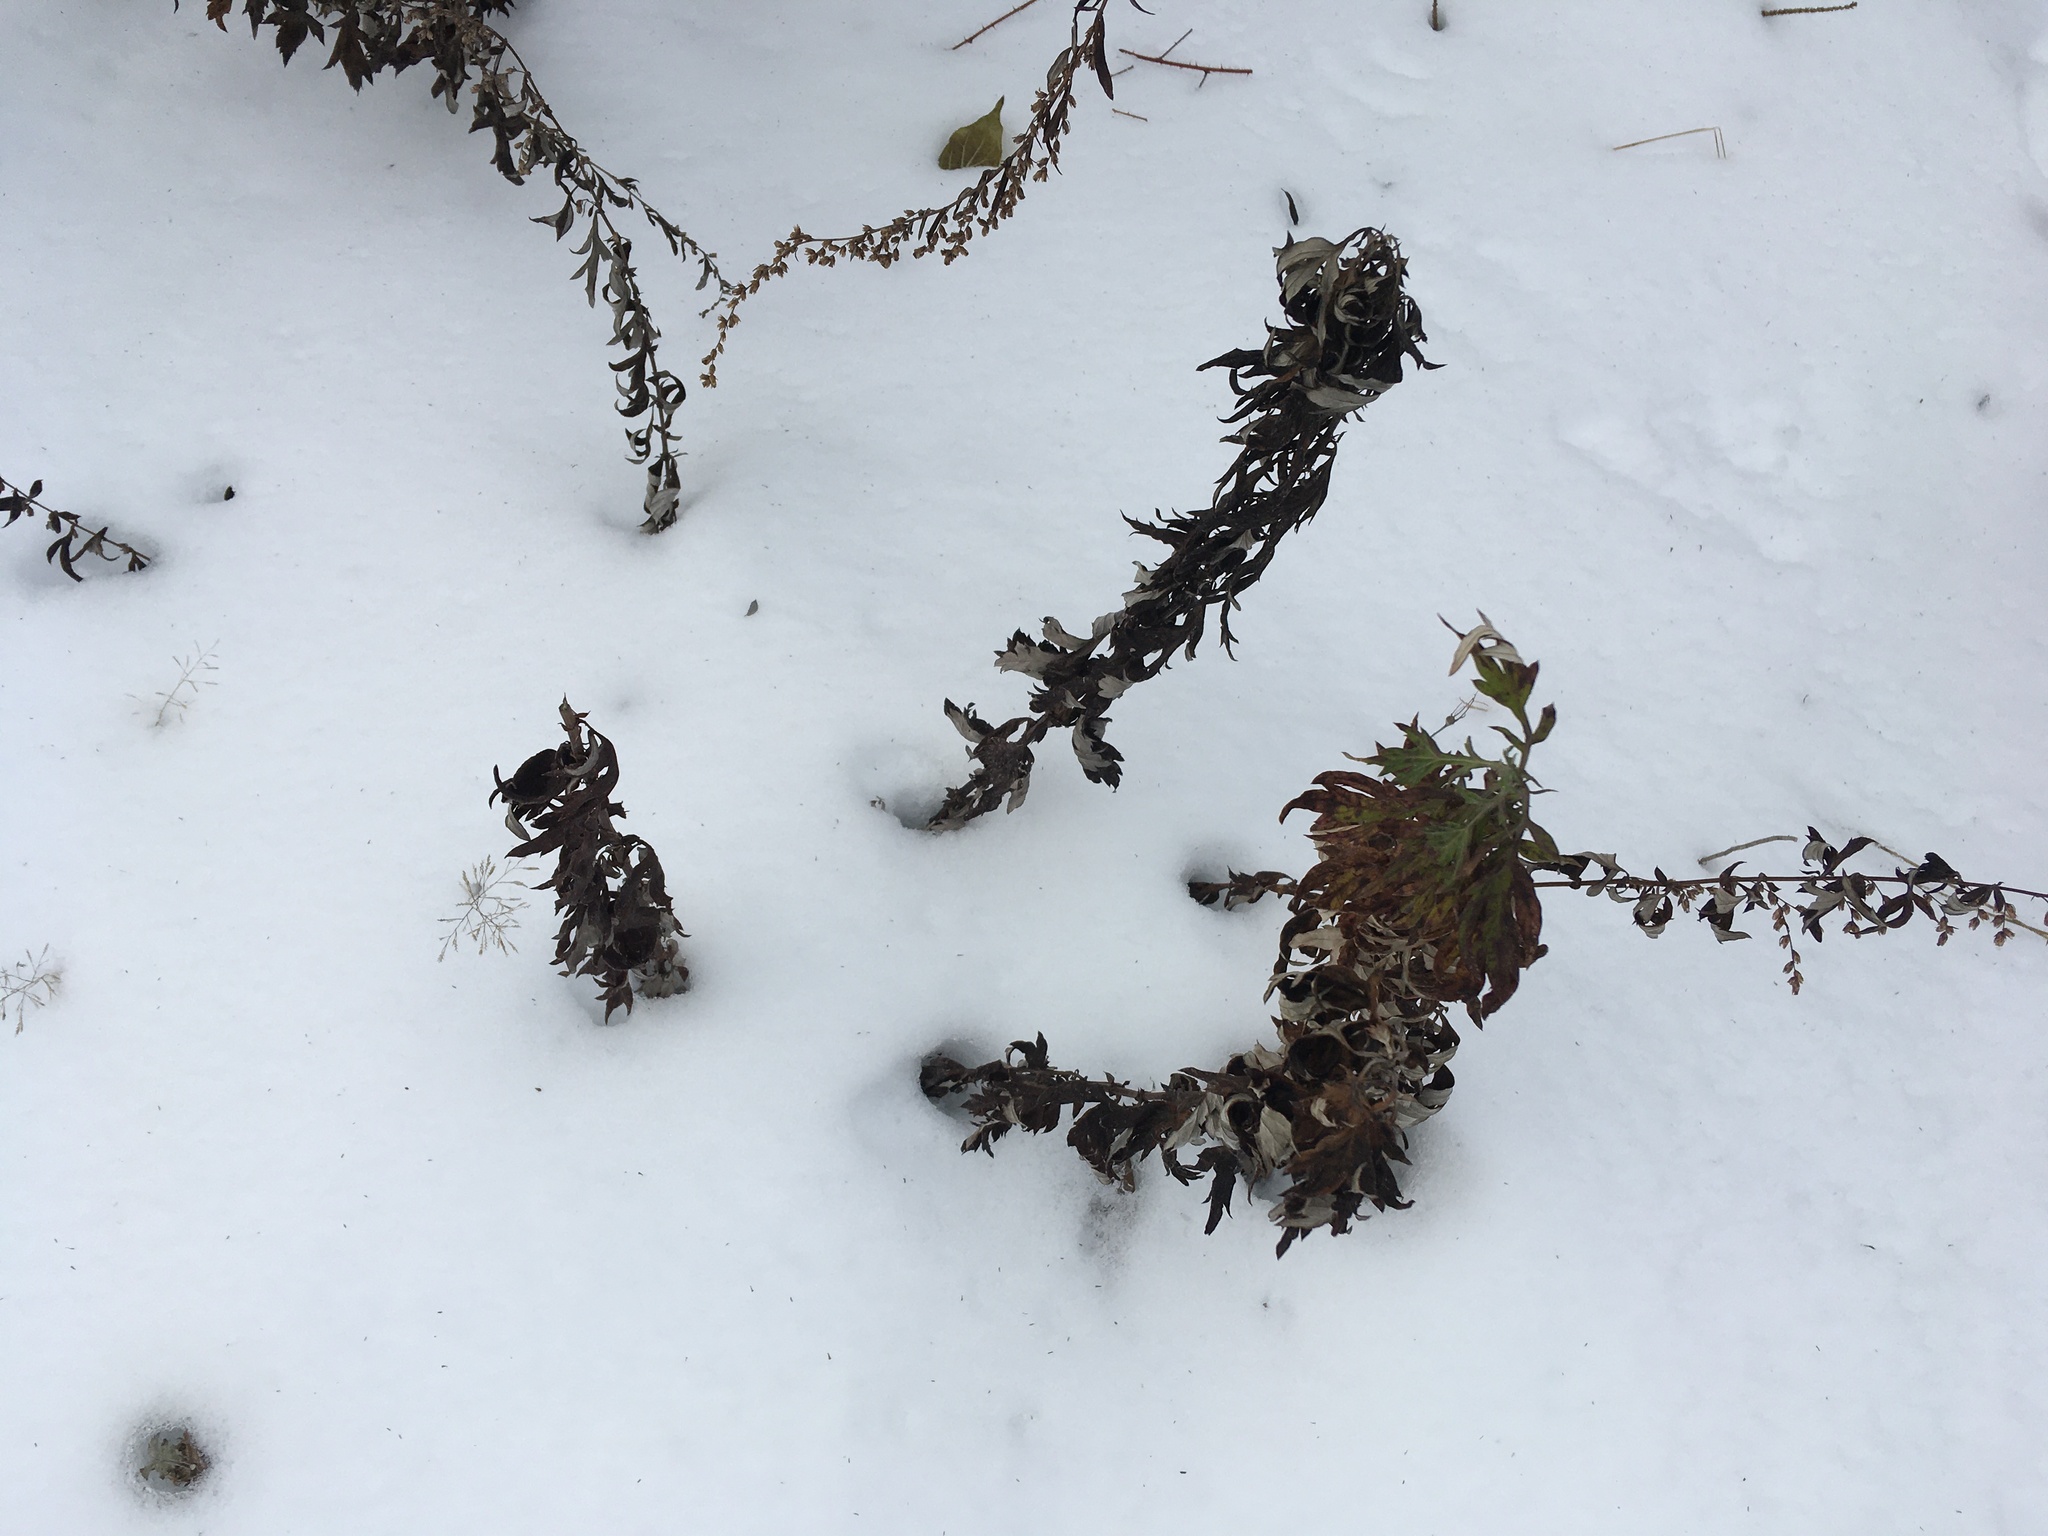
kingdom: Plantae
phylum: Tracheophyta
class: Magnoliopsida
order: Asterales
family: Asteraceae
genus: Artemisia
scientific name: Artemisia vulgaris
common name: Mugwort
